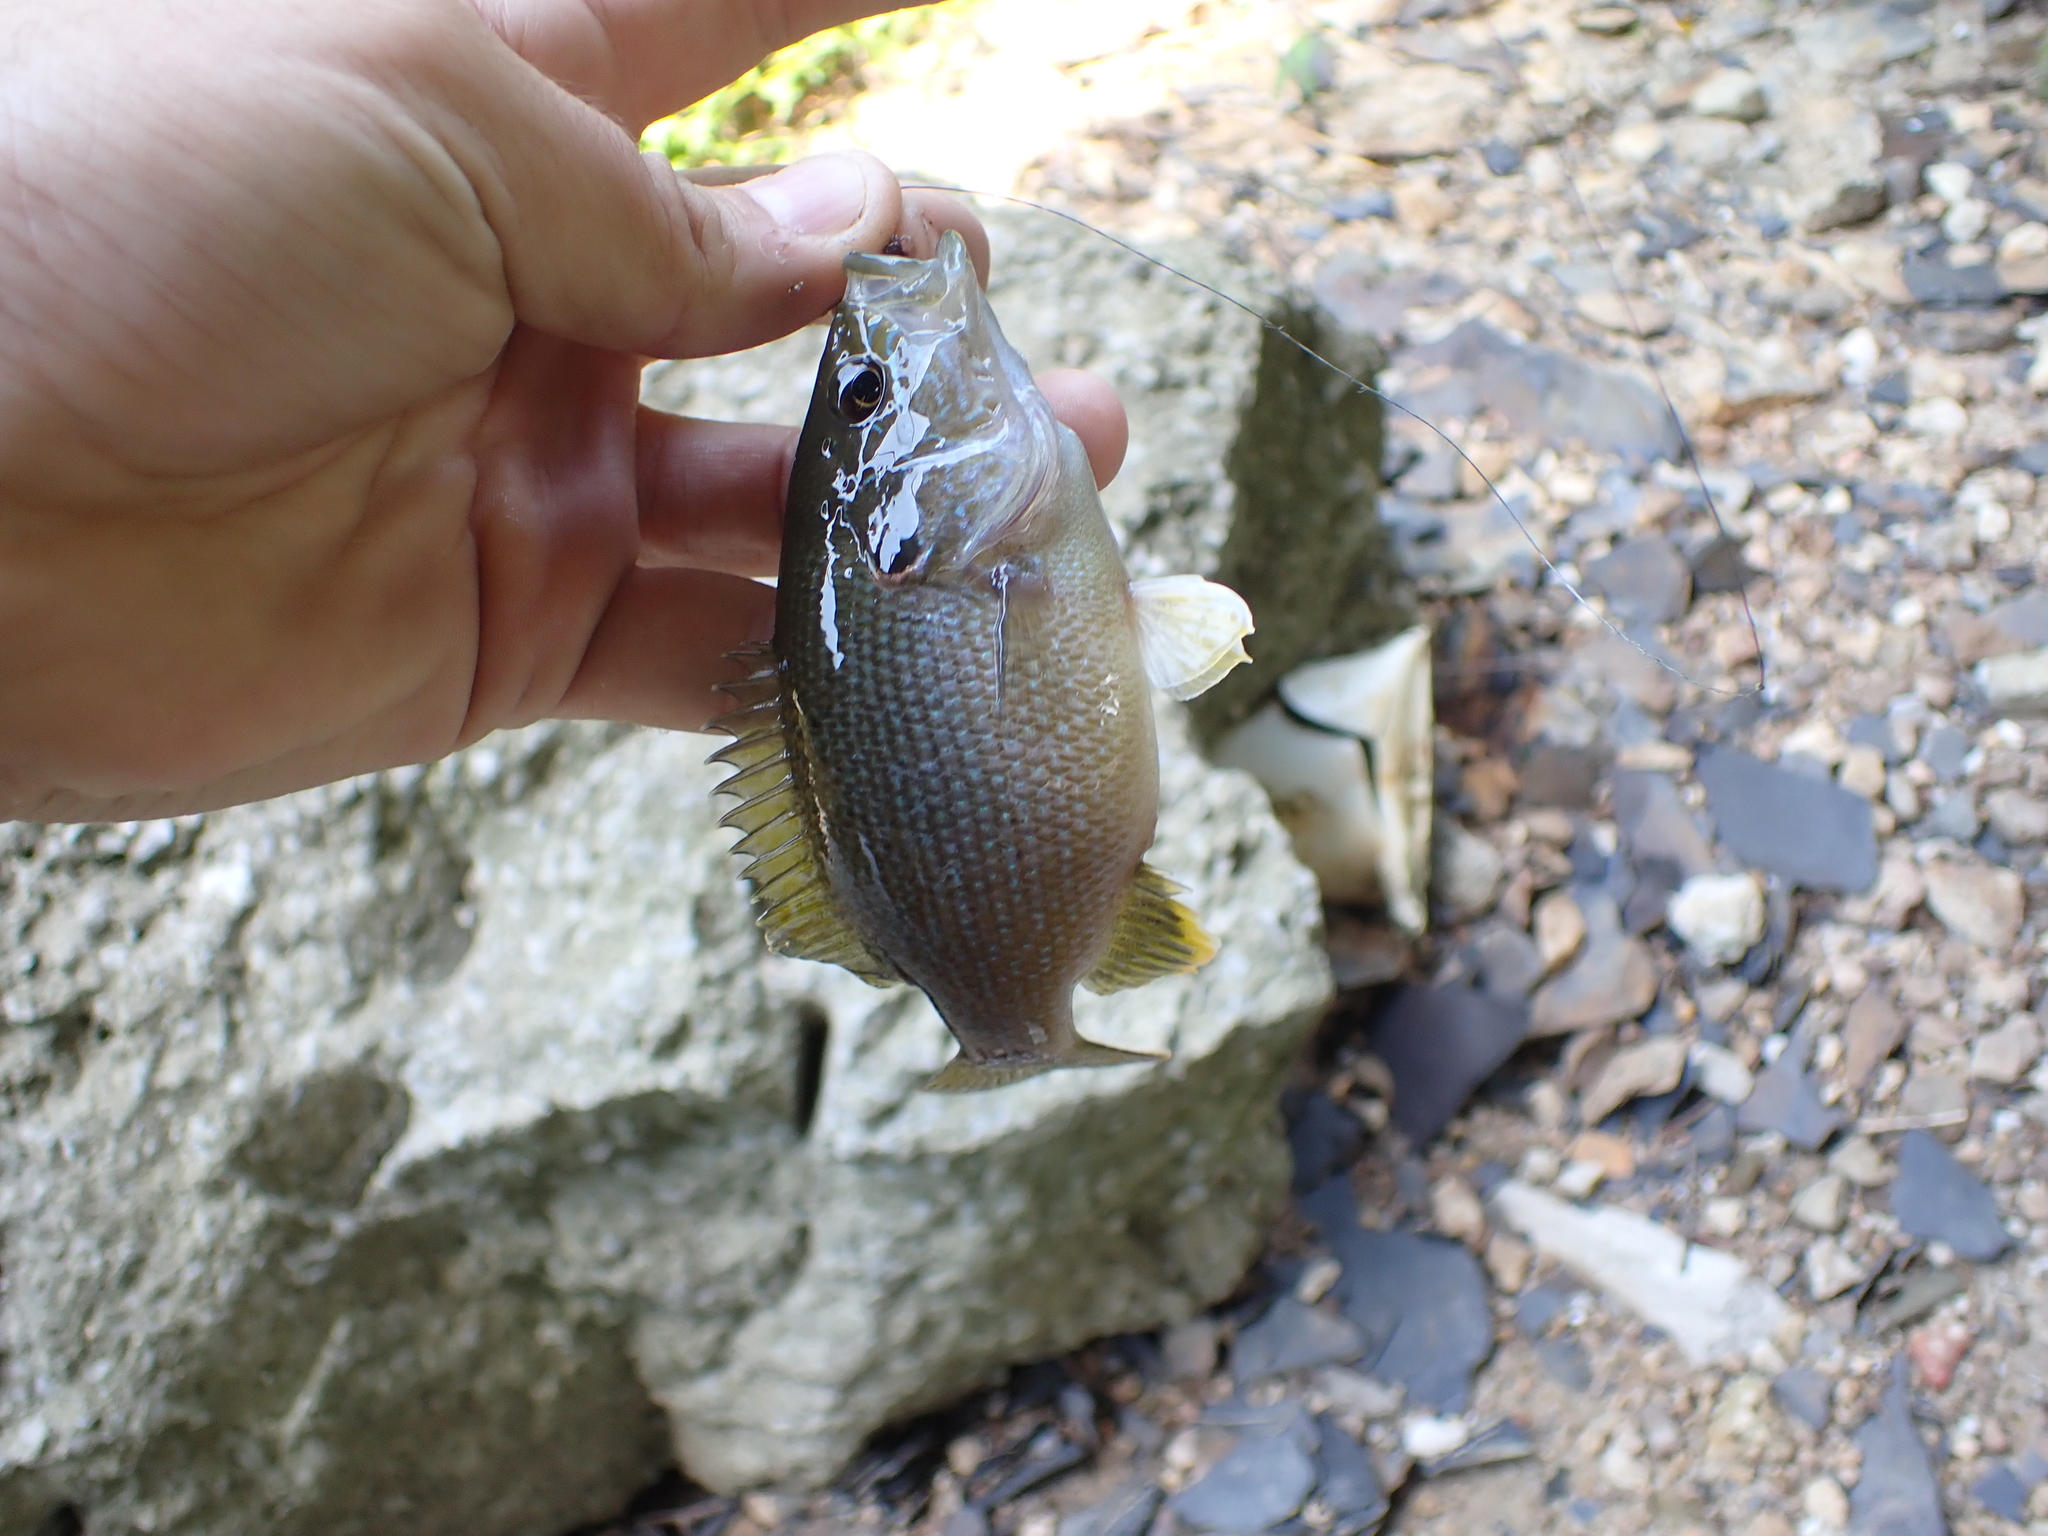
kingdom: Animalia
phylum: Chordata
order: Perciformes
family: Centrarchidae
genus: Lepomis
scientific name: Lepomis cyanellus
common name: Green sunfish
